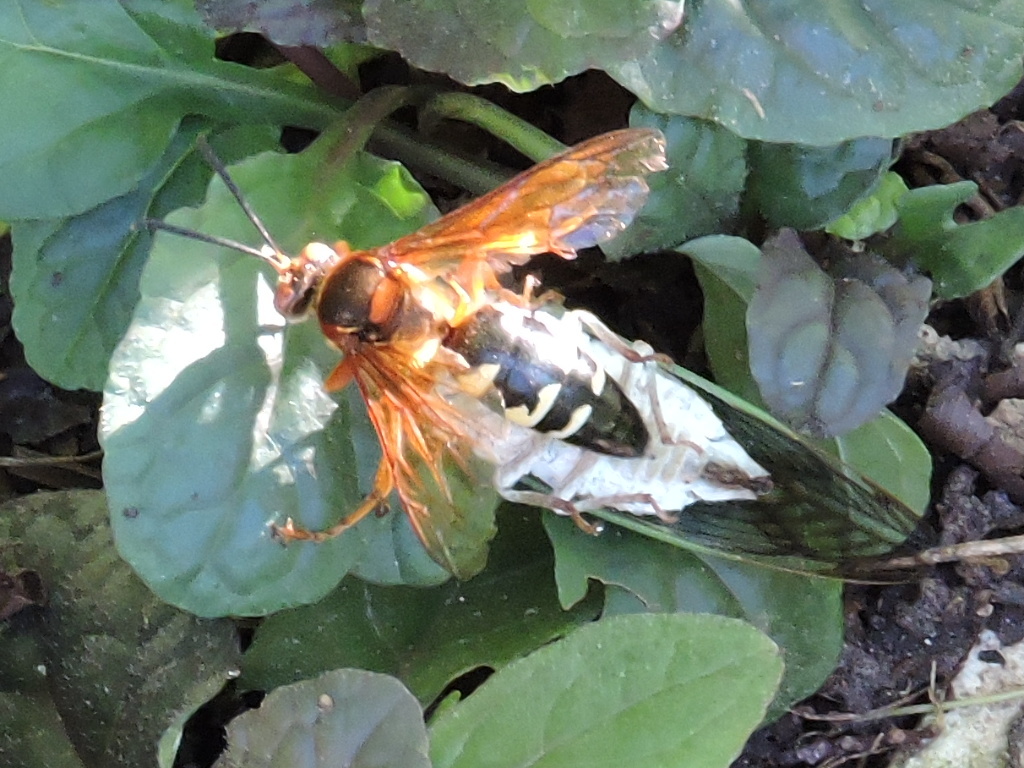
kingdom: Animalia
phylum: Arthropoda
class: Insecta
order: Hymenoptera
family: Crabronidae
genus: Sphecius
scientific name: Sphecius speciosus
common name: Cicada killer
